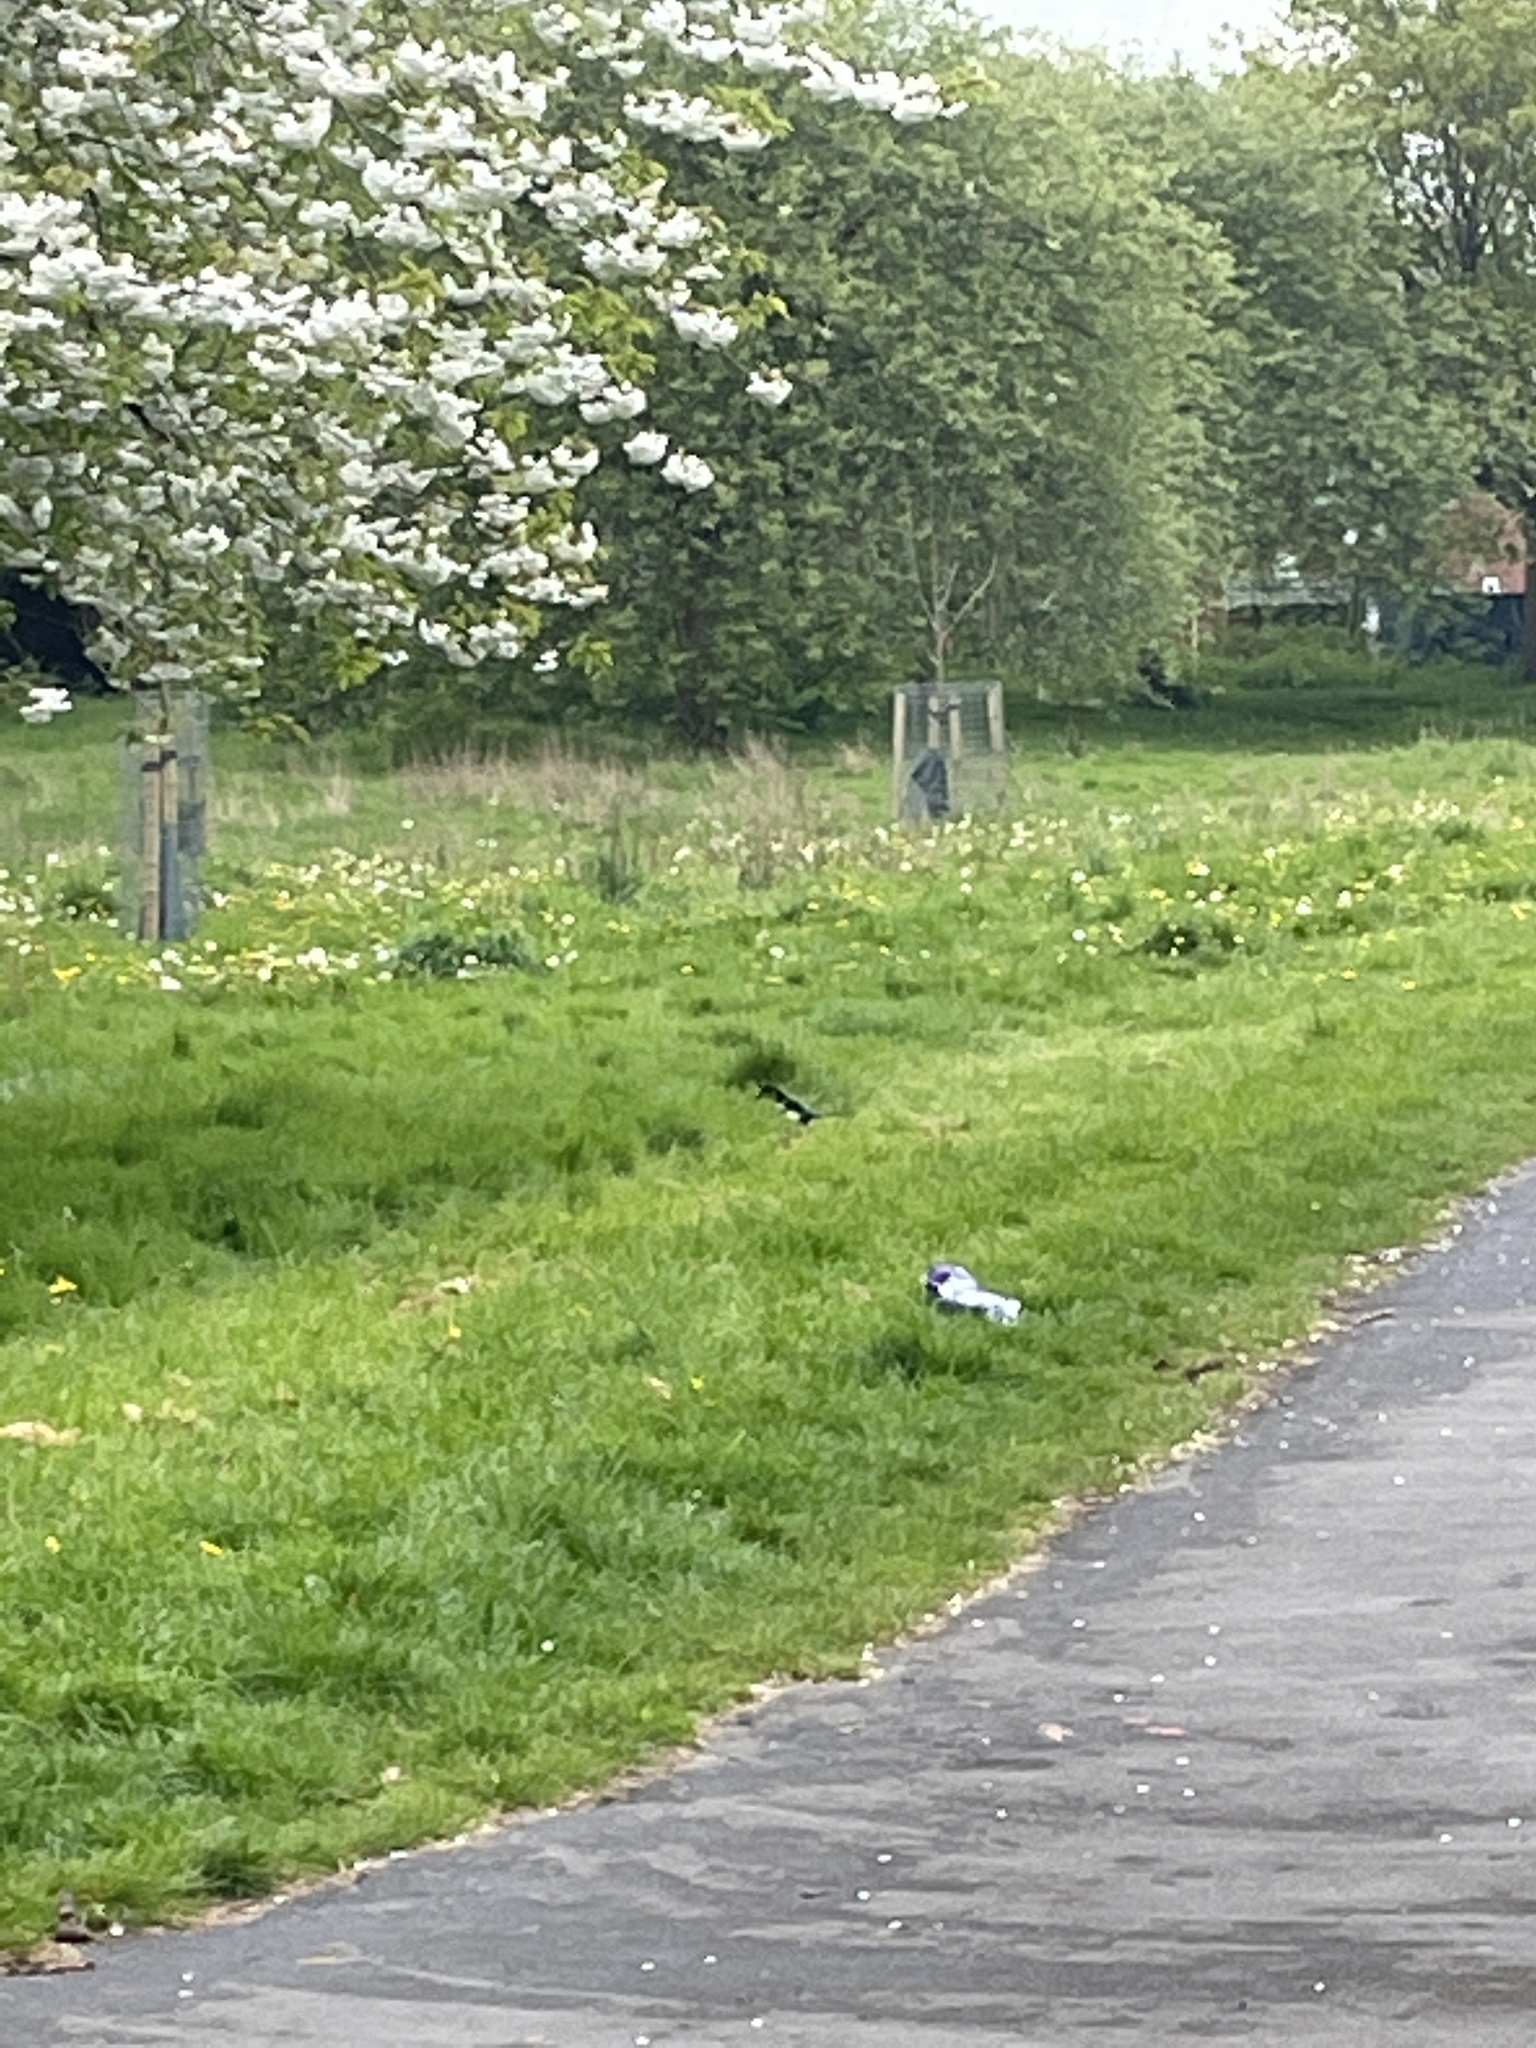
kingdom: Animalia
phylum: Chordata
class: Aves
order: Passeriformes
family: Corvidae
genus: Pica
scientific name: Pica pica
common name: Eurasian magpie
